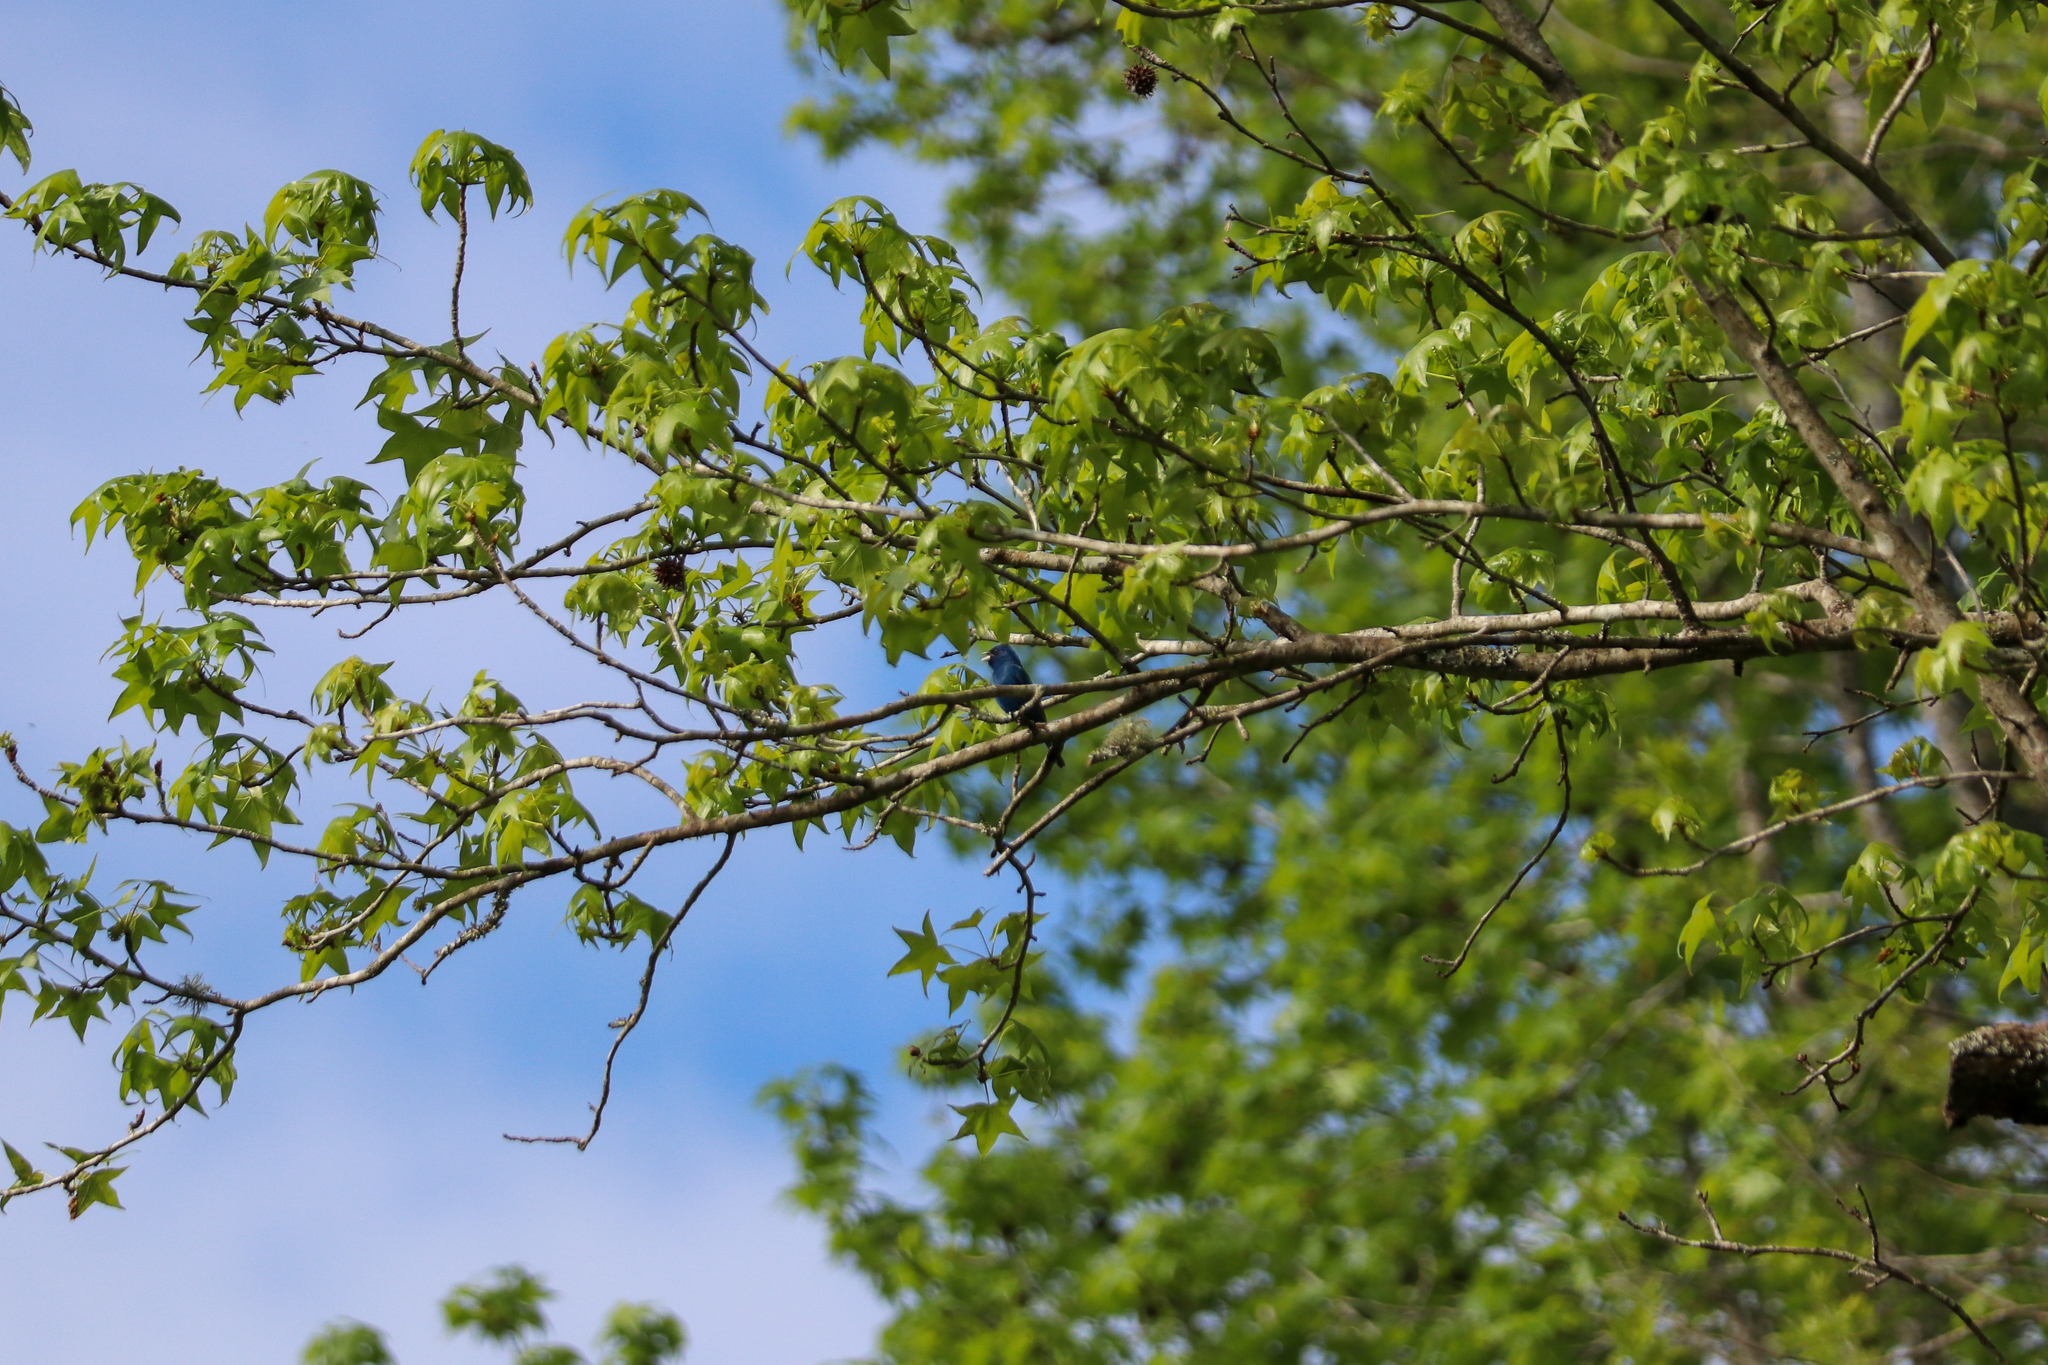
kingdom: Animalia
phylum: Chordata
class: Aves
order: Passeriformes
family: Cardinalidae
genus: Passerina
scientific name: Passerina cyanea
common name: Indigo bunting
